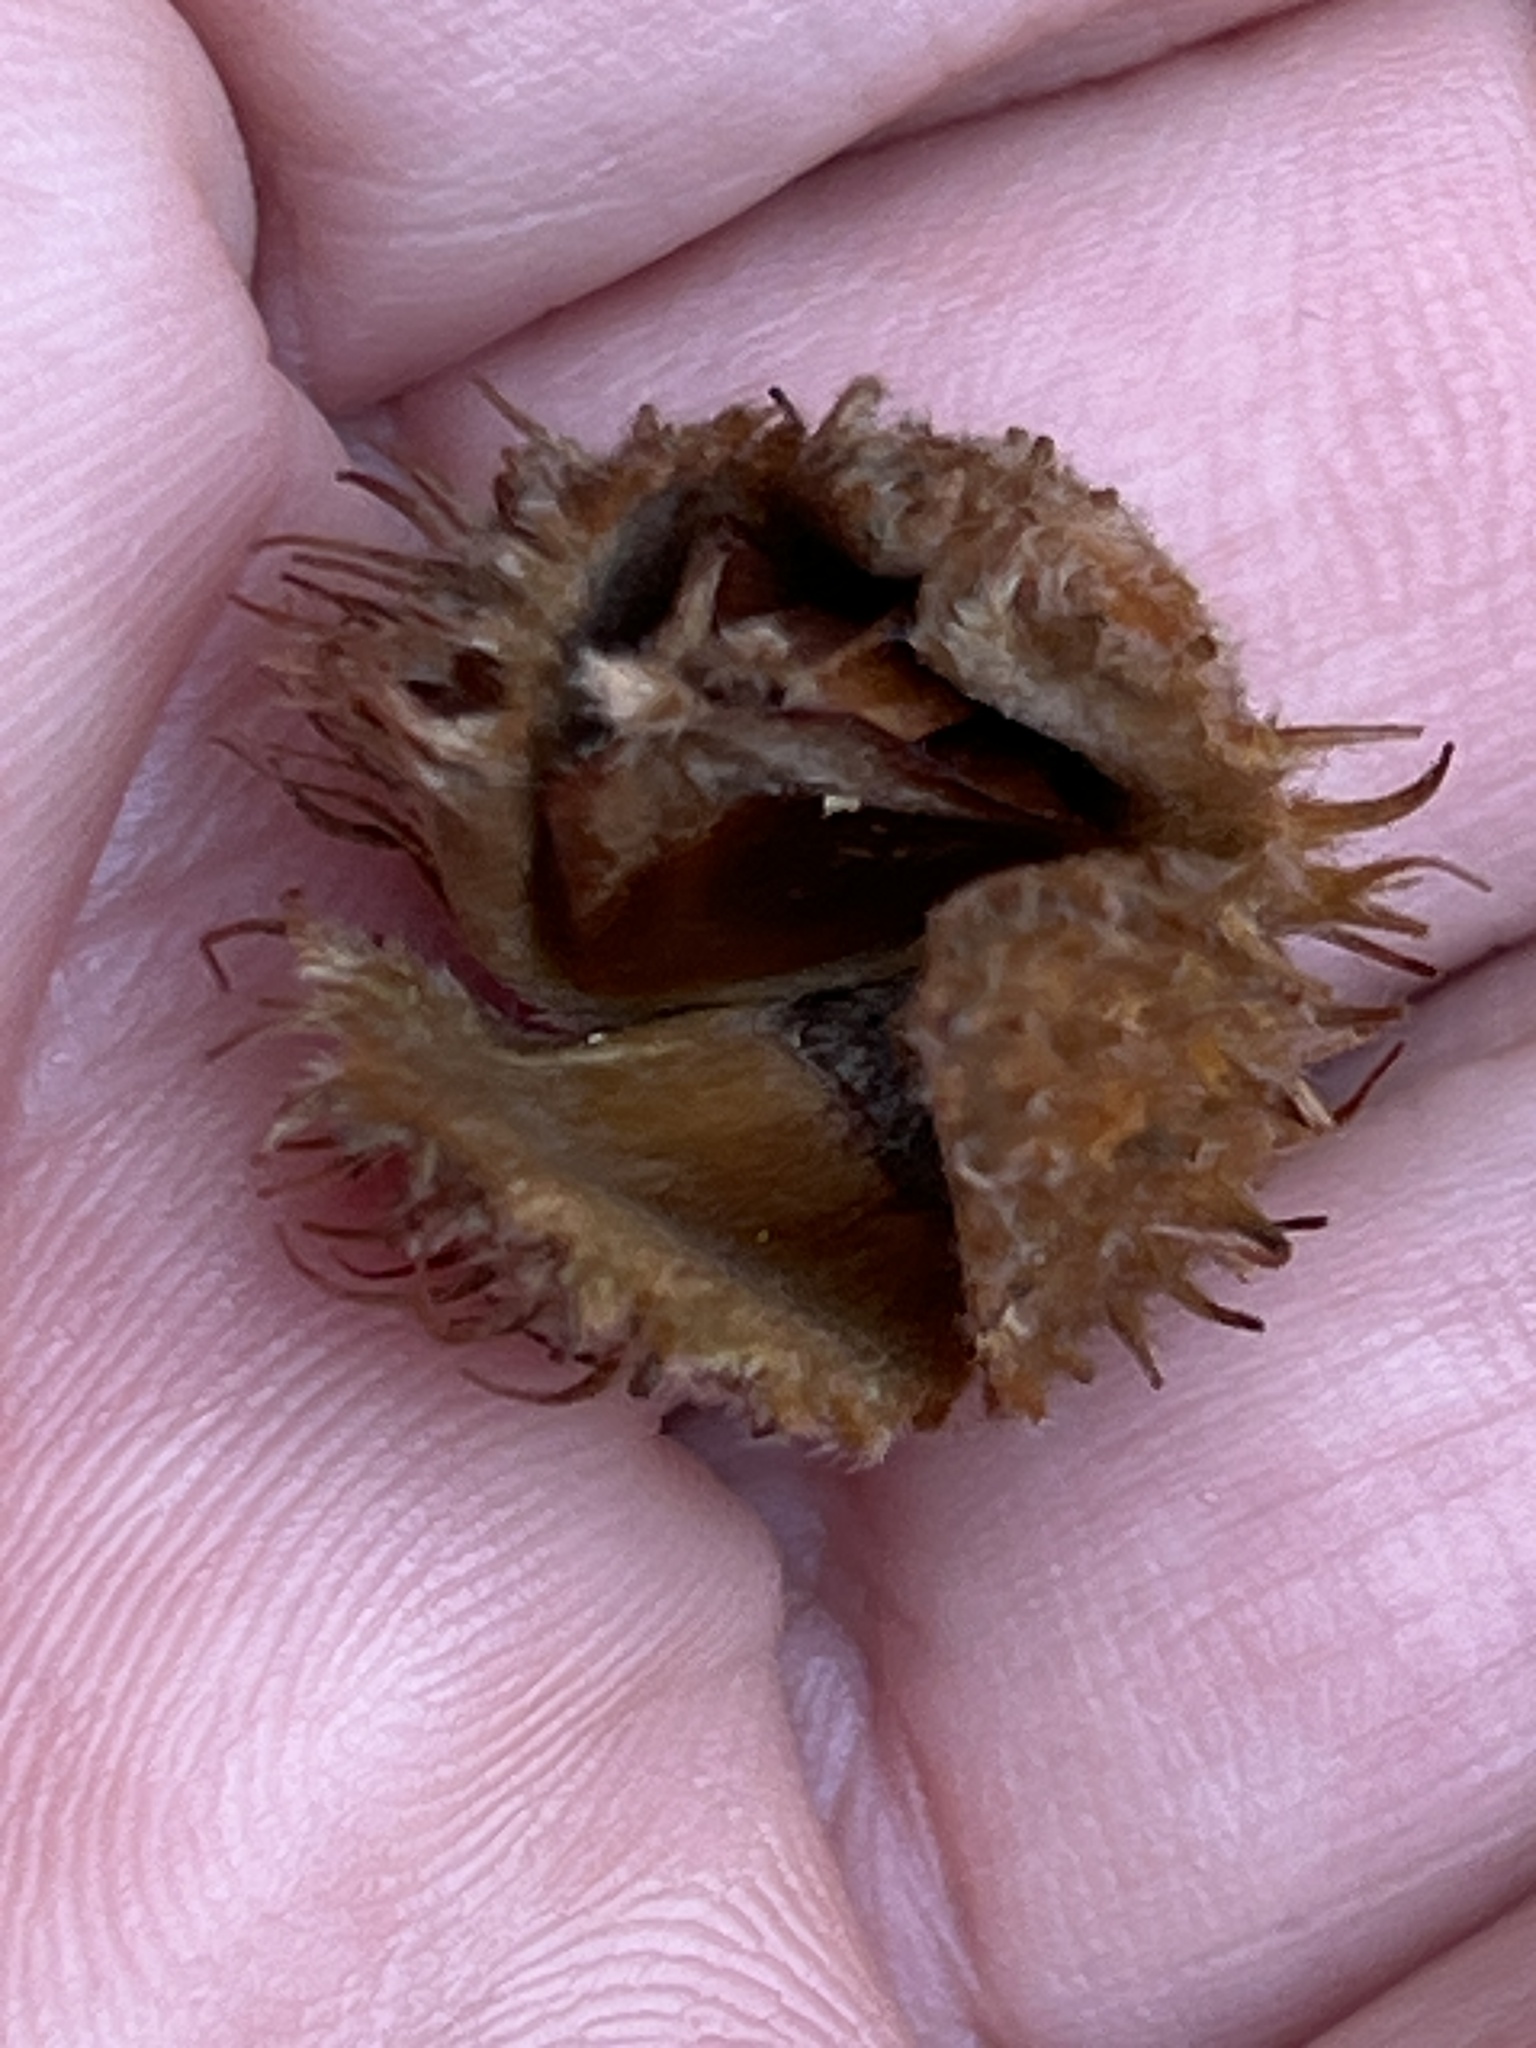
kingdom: Plantae
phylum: Tracheophyta
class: Magnoliopsida
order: Fagales
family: Fagaceae
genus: Fagus
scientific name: Fagus sylvatica
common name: Beech
